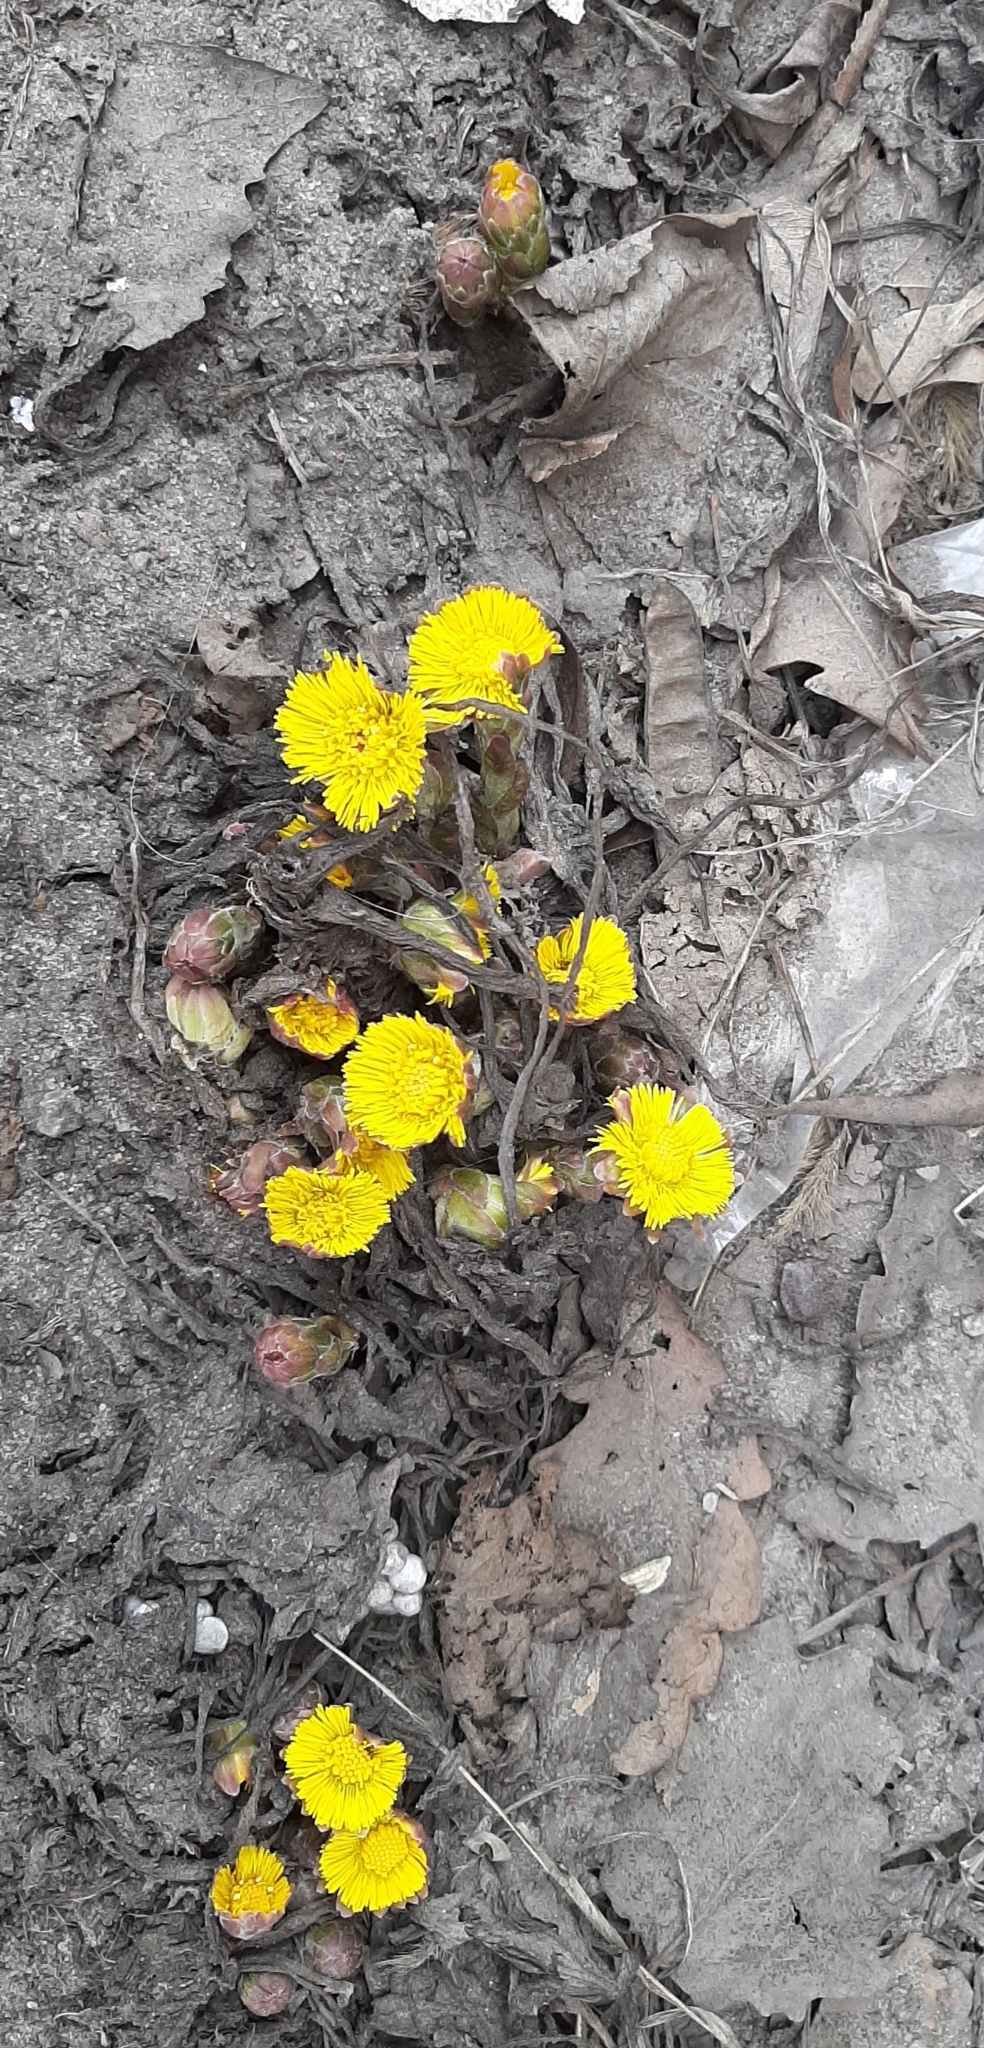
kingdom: Plantae
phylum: Tracheophyta
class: Magnoliopsida
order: Asterales
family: Asteraceae
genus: Tussilago
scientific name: Tussilago farfara
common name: Coltsfoot
